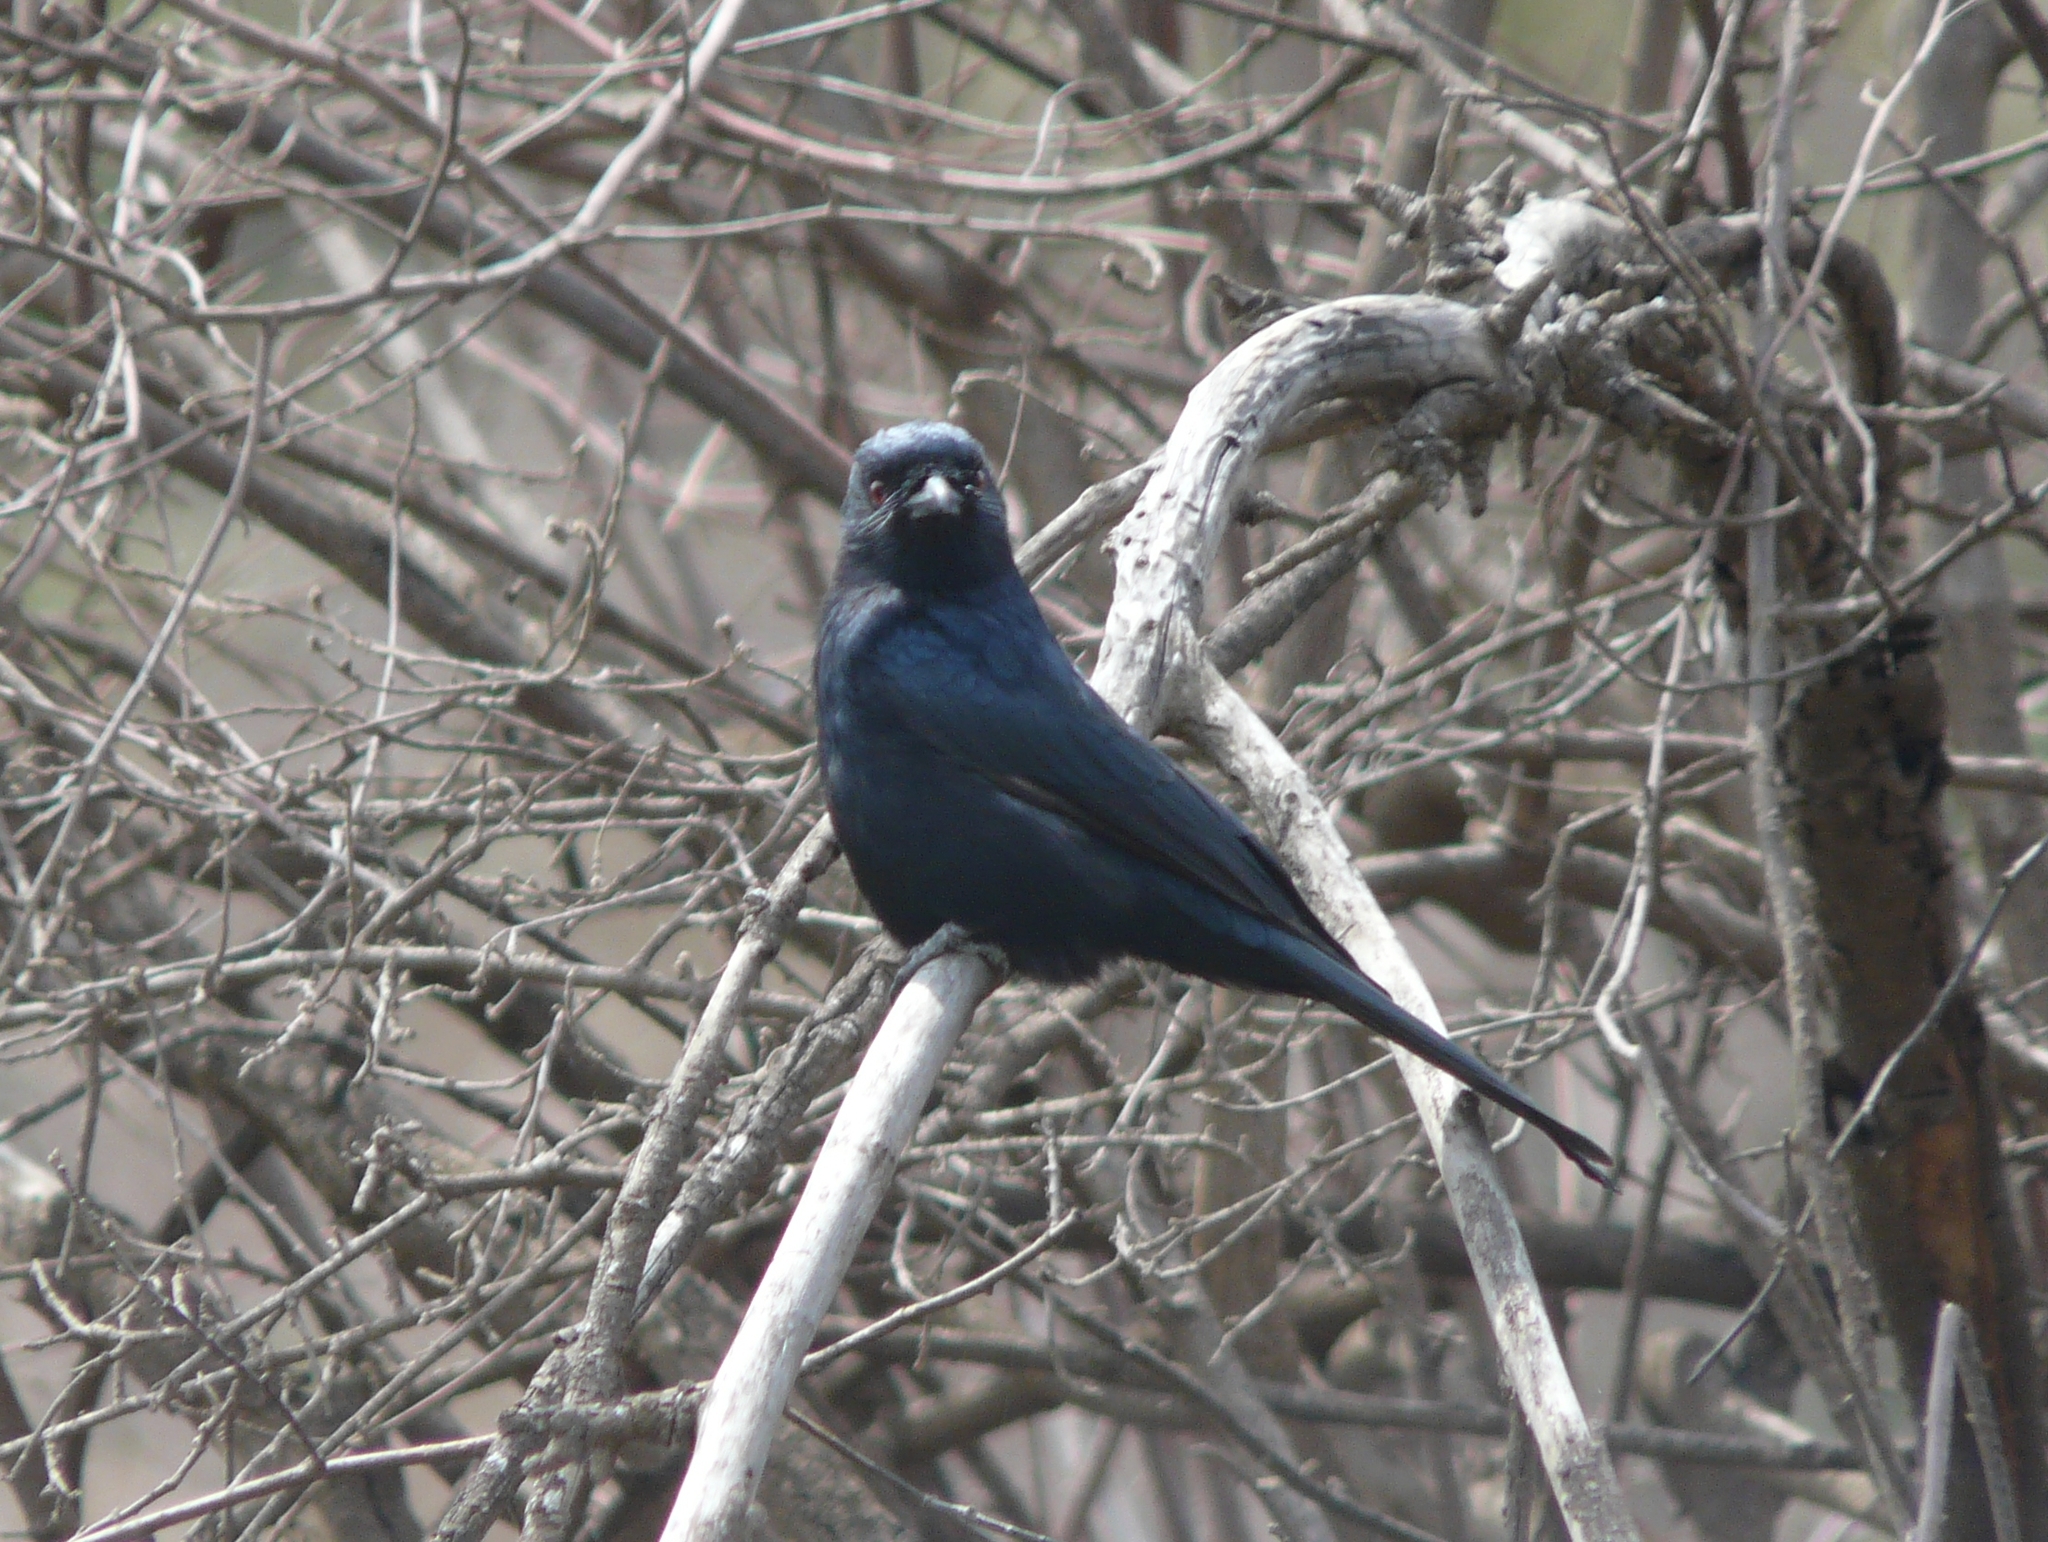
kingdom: Animalia
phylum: Chordata
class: Aves
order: Passeriformes
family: Dicruridae
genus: Dicrurus
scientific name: Dicrurus adsimilis
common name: Fork-tailed drongo
